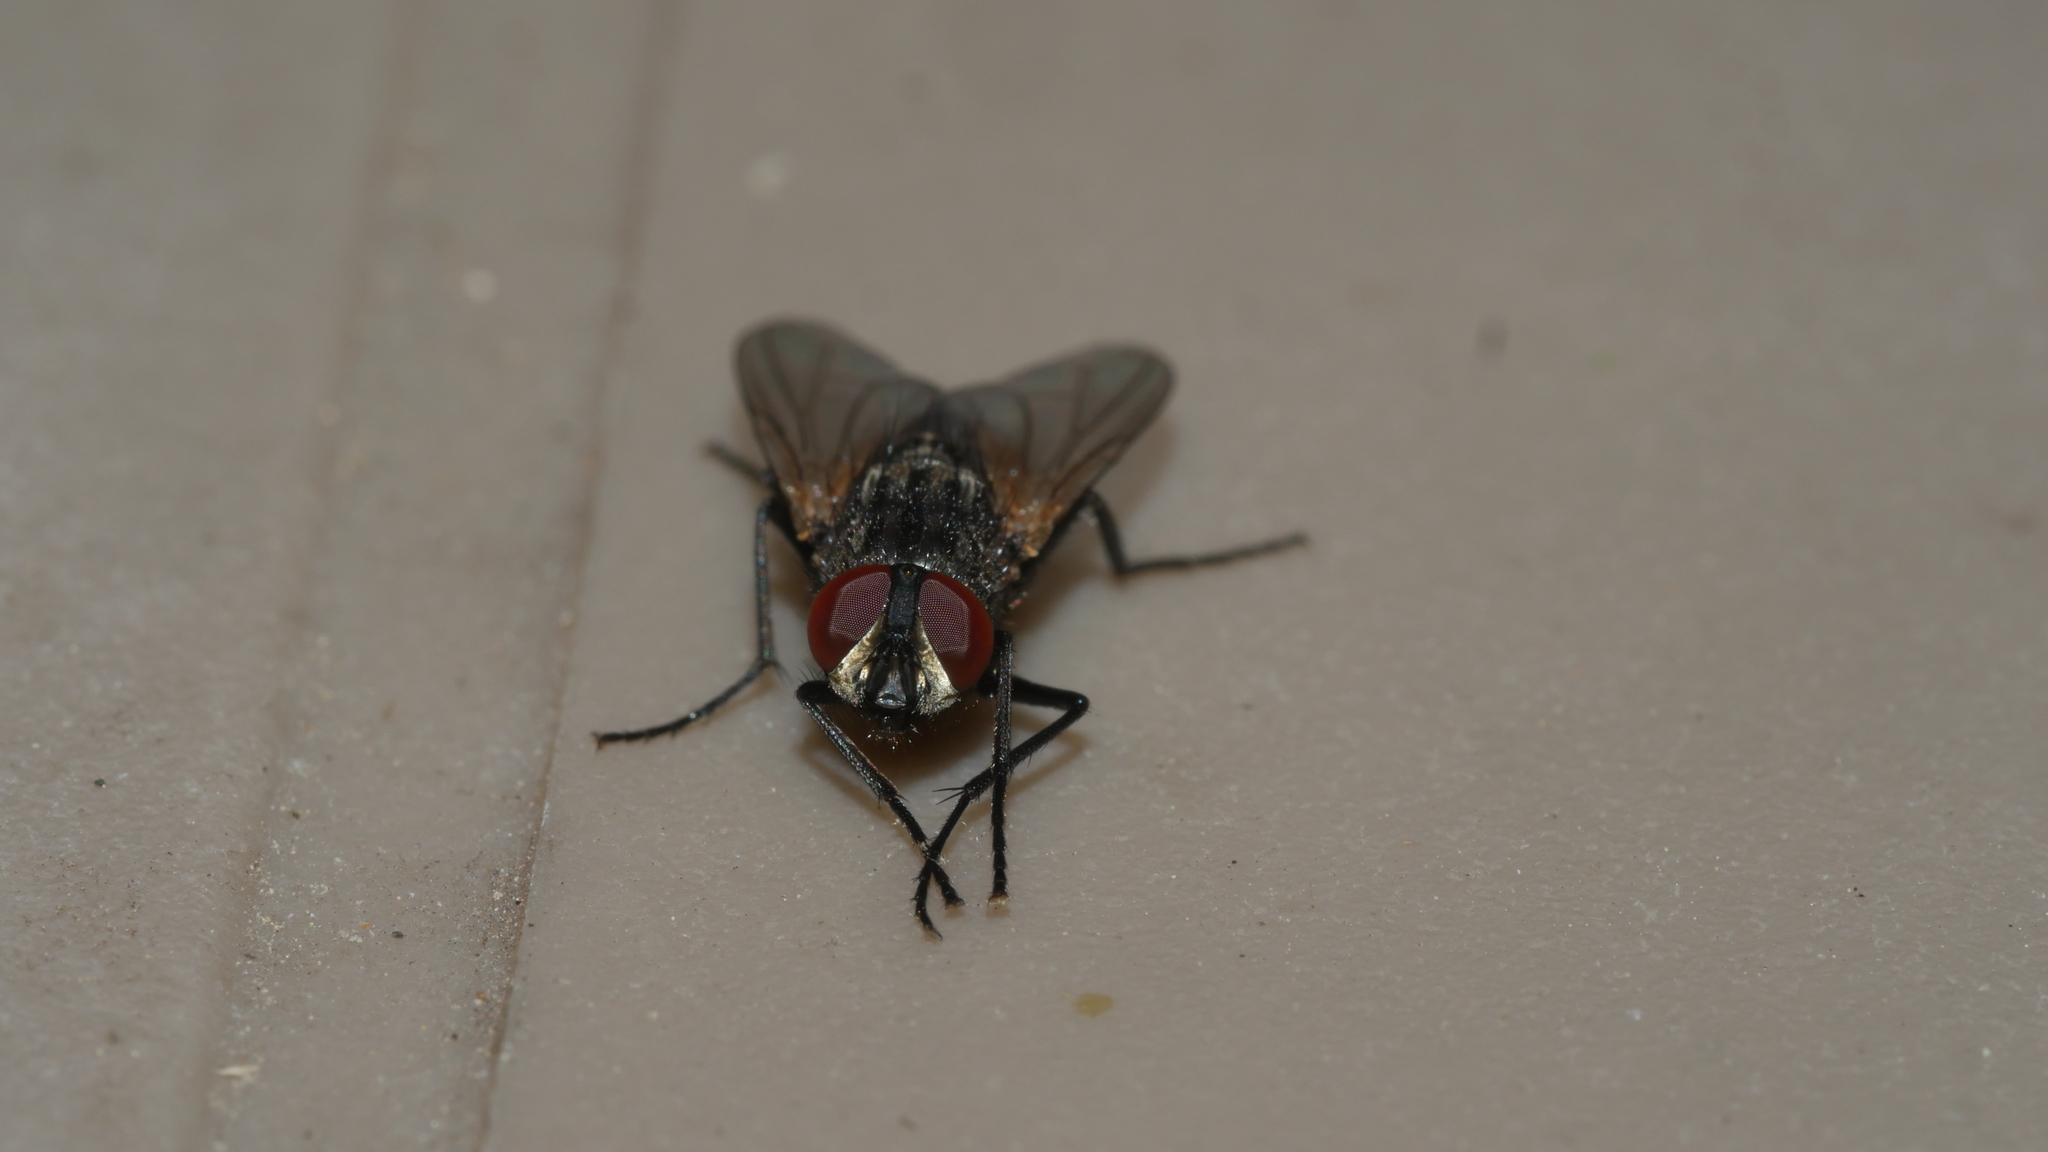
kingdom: Animalia
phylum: Arthropoda
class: Insecta
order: Diptera
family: Muscidae
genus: Musca
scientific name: Musca domestica
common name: House fly
